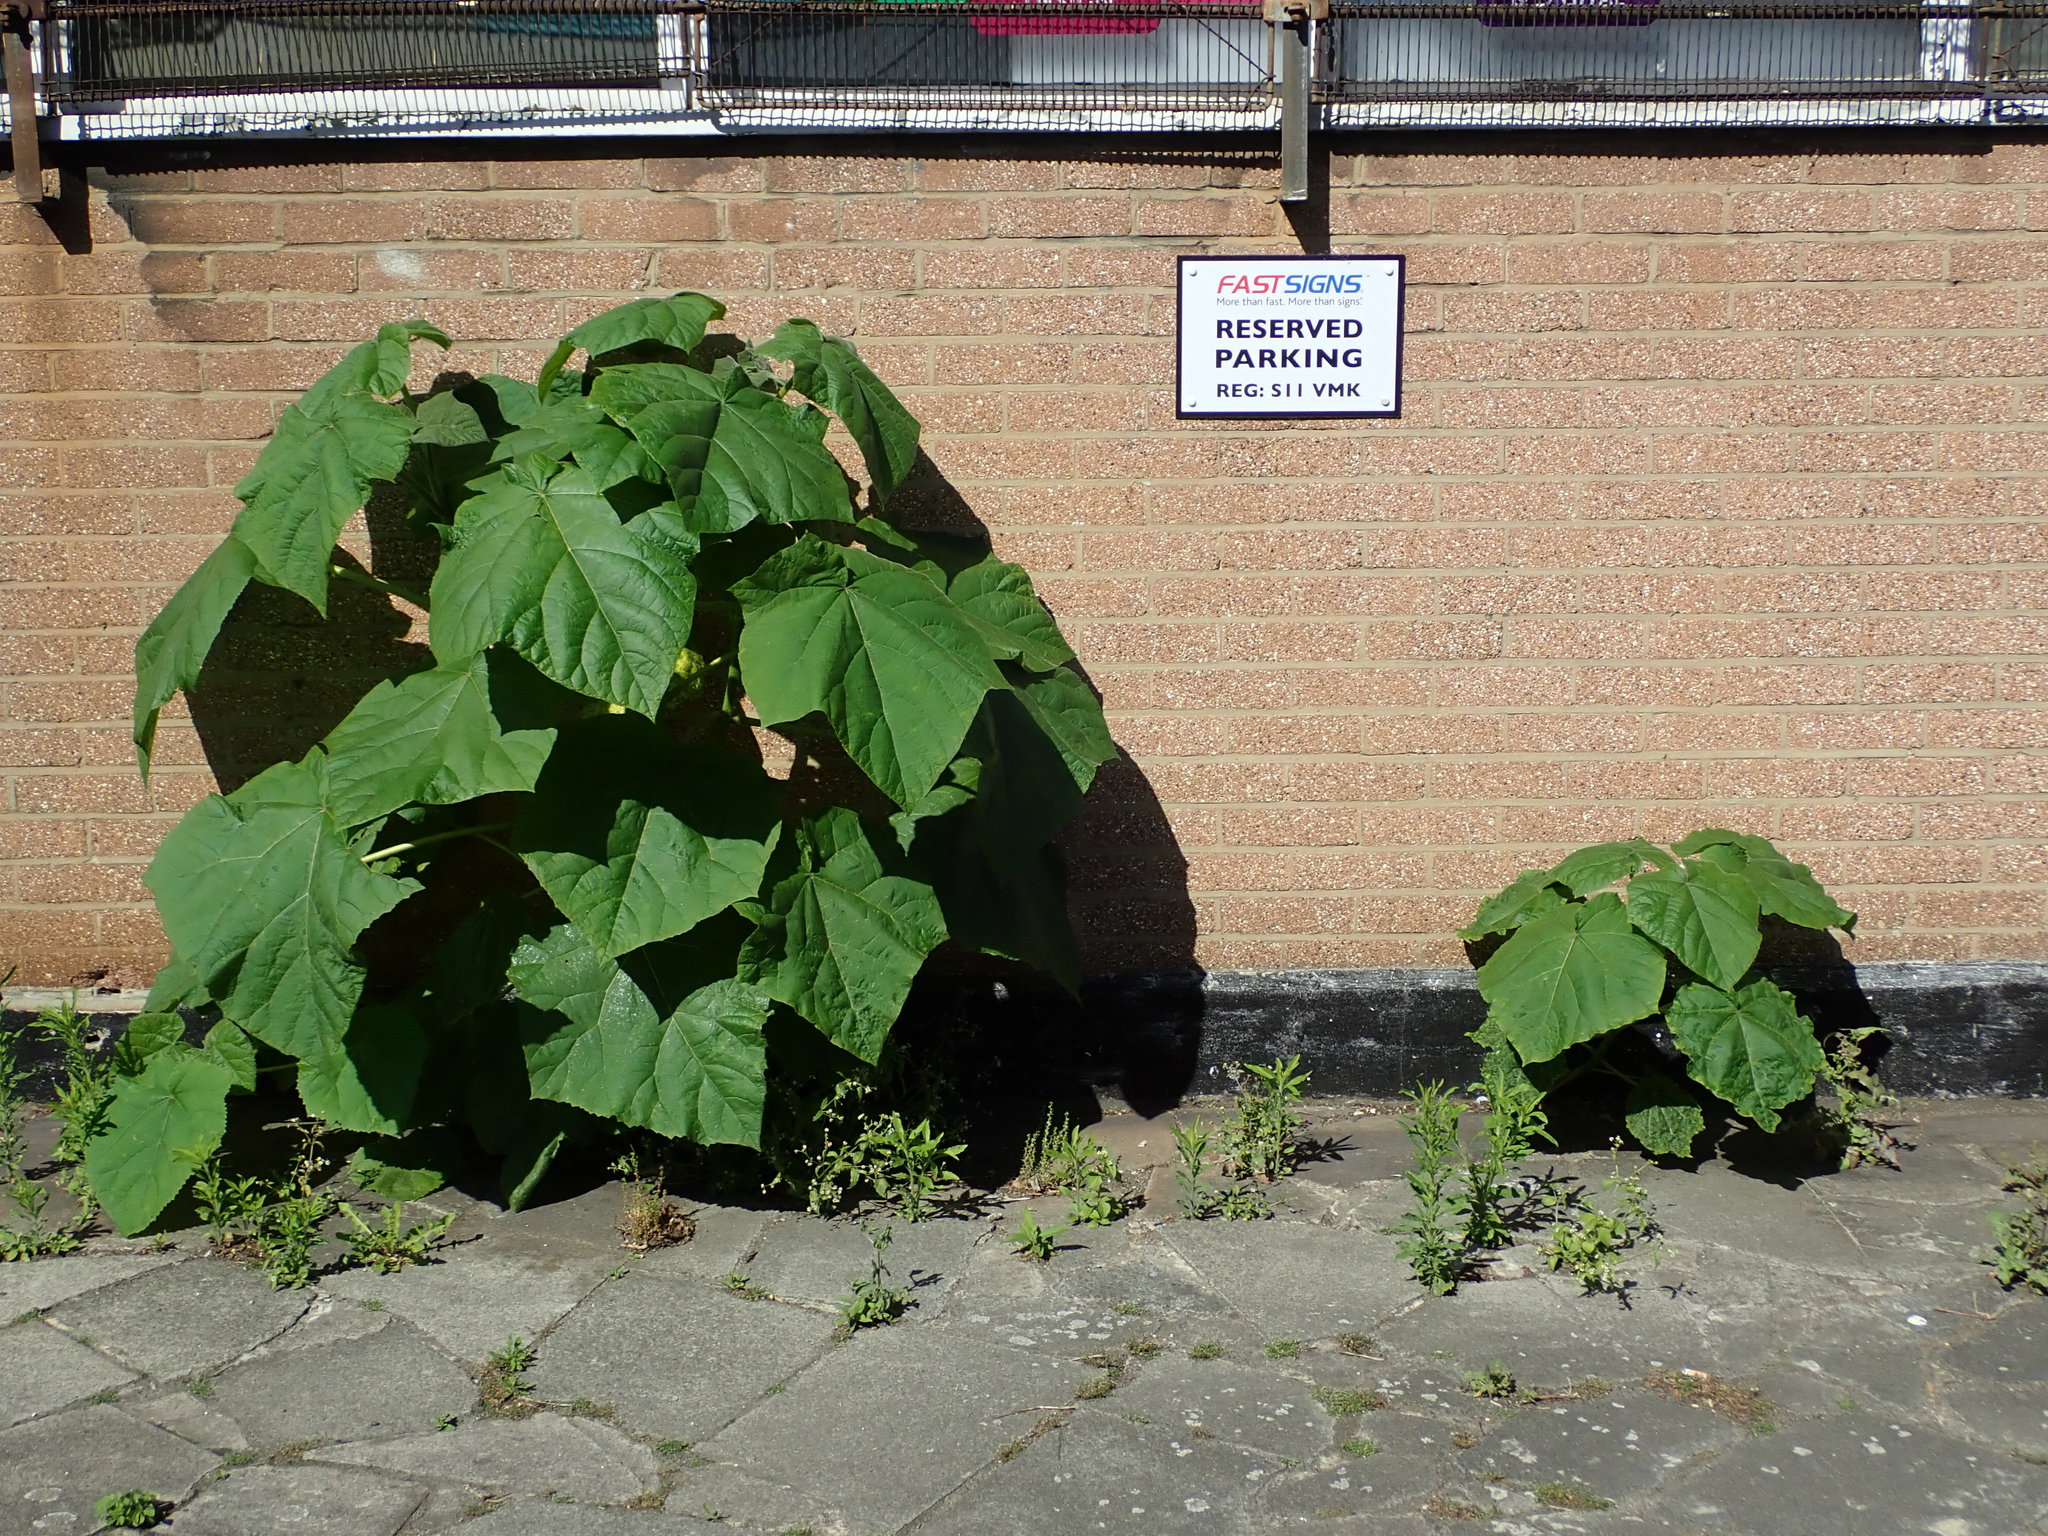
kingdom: Plantae
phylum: Tracheophyta
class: Magnoliopsida
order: Lamiales
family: Paulowniaceae
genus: Paulownia
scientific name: Paulownia tomentosa
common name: Foxglove-tree
